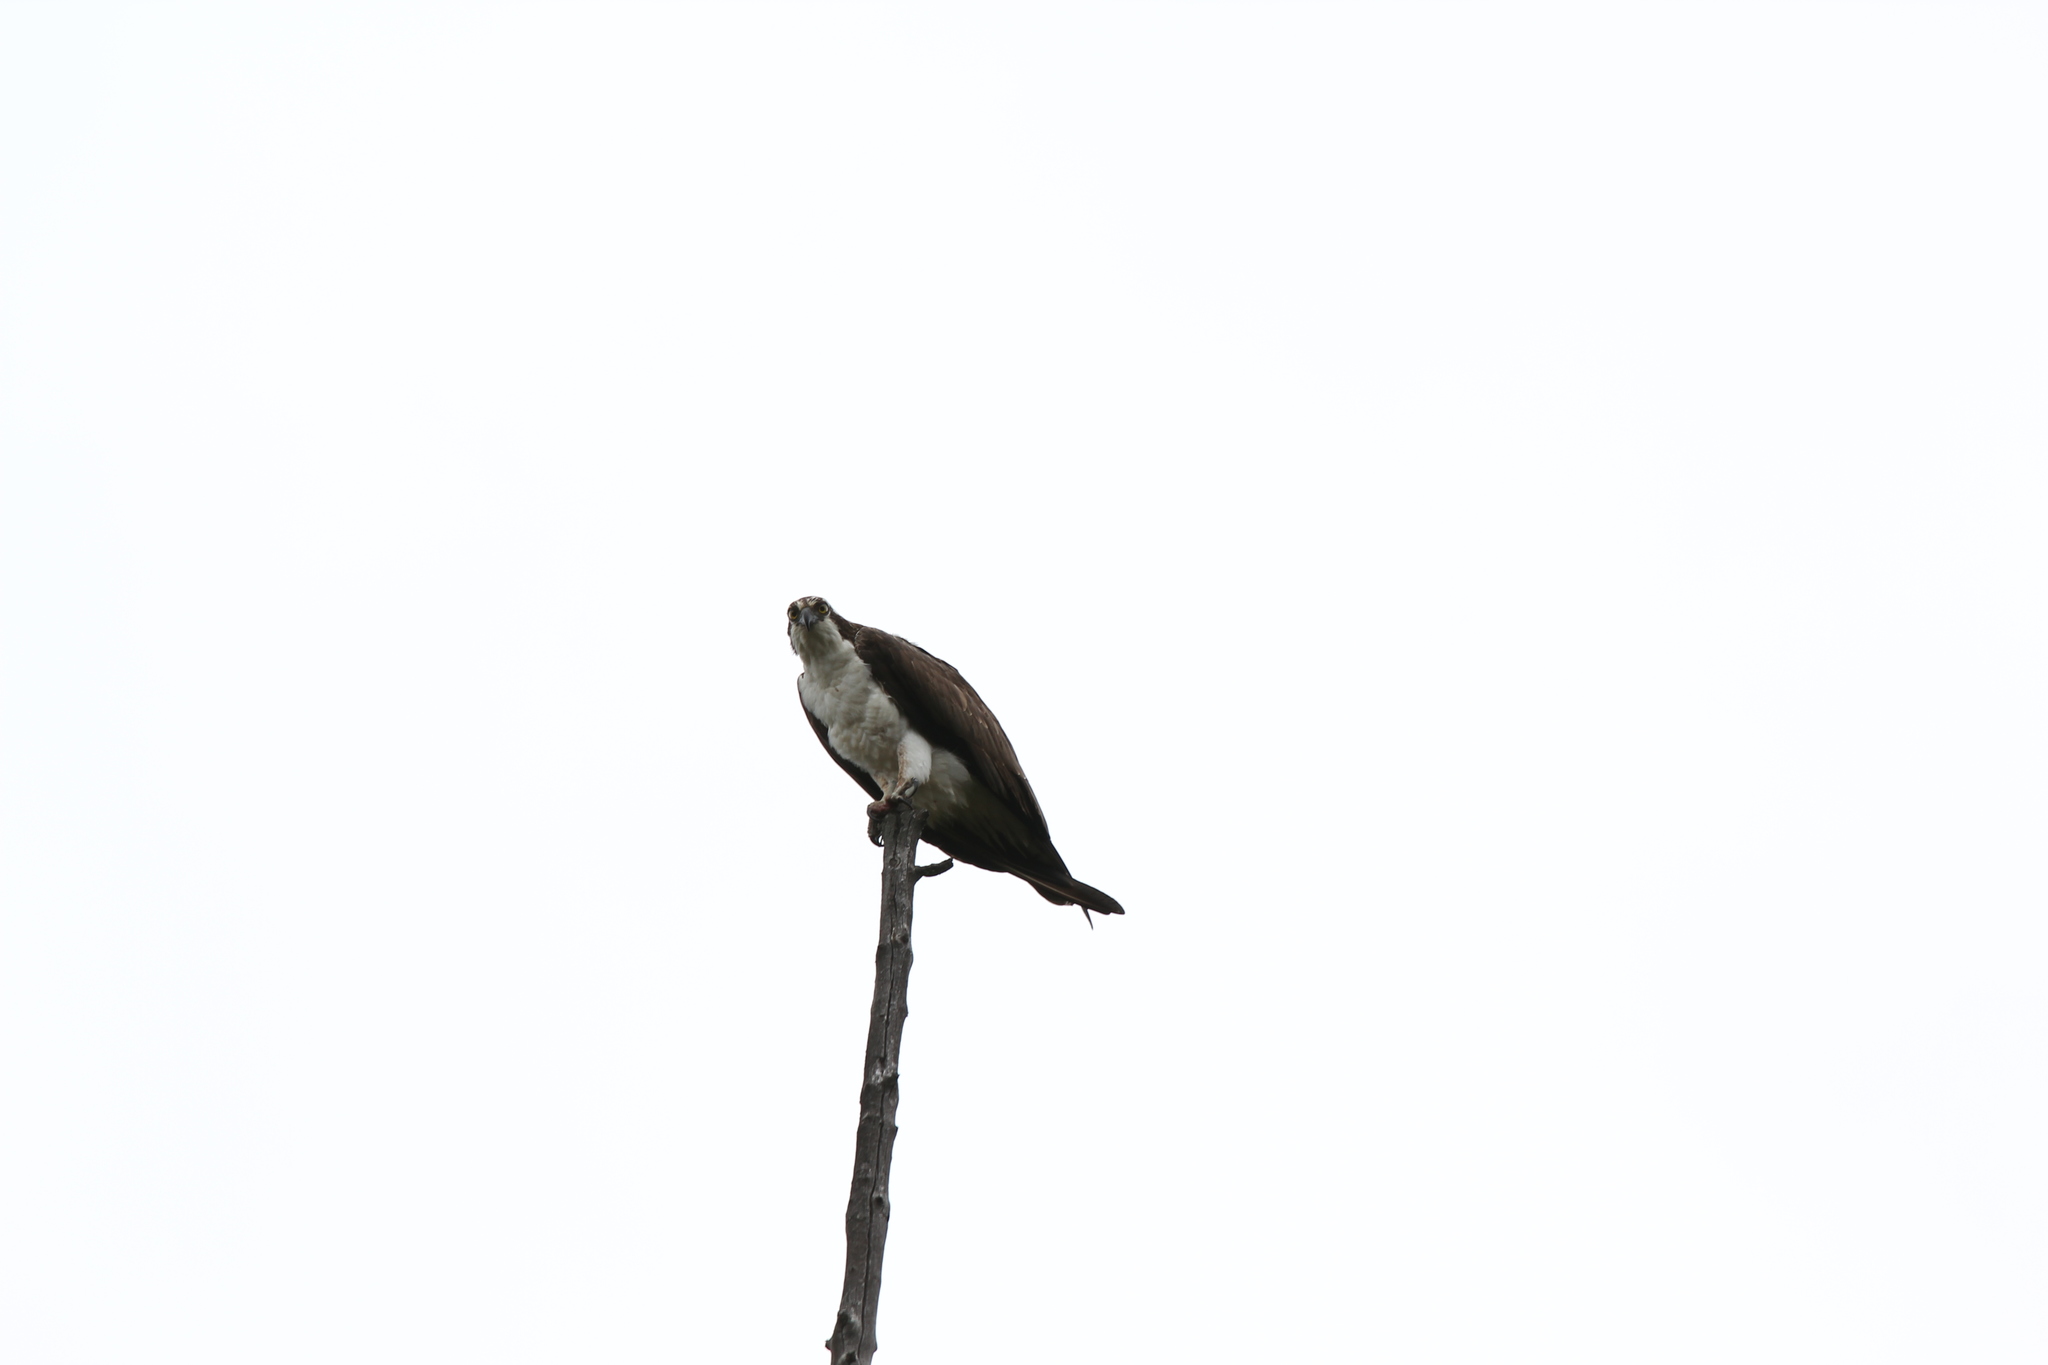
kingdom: Animalia
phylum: Chordata
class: Aves
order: Accipitriformes
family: Pandionidae
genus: Pandion
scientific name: Pandion haliaetus
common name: Osprey
